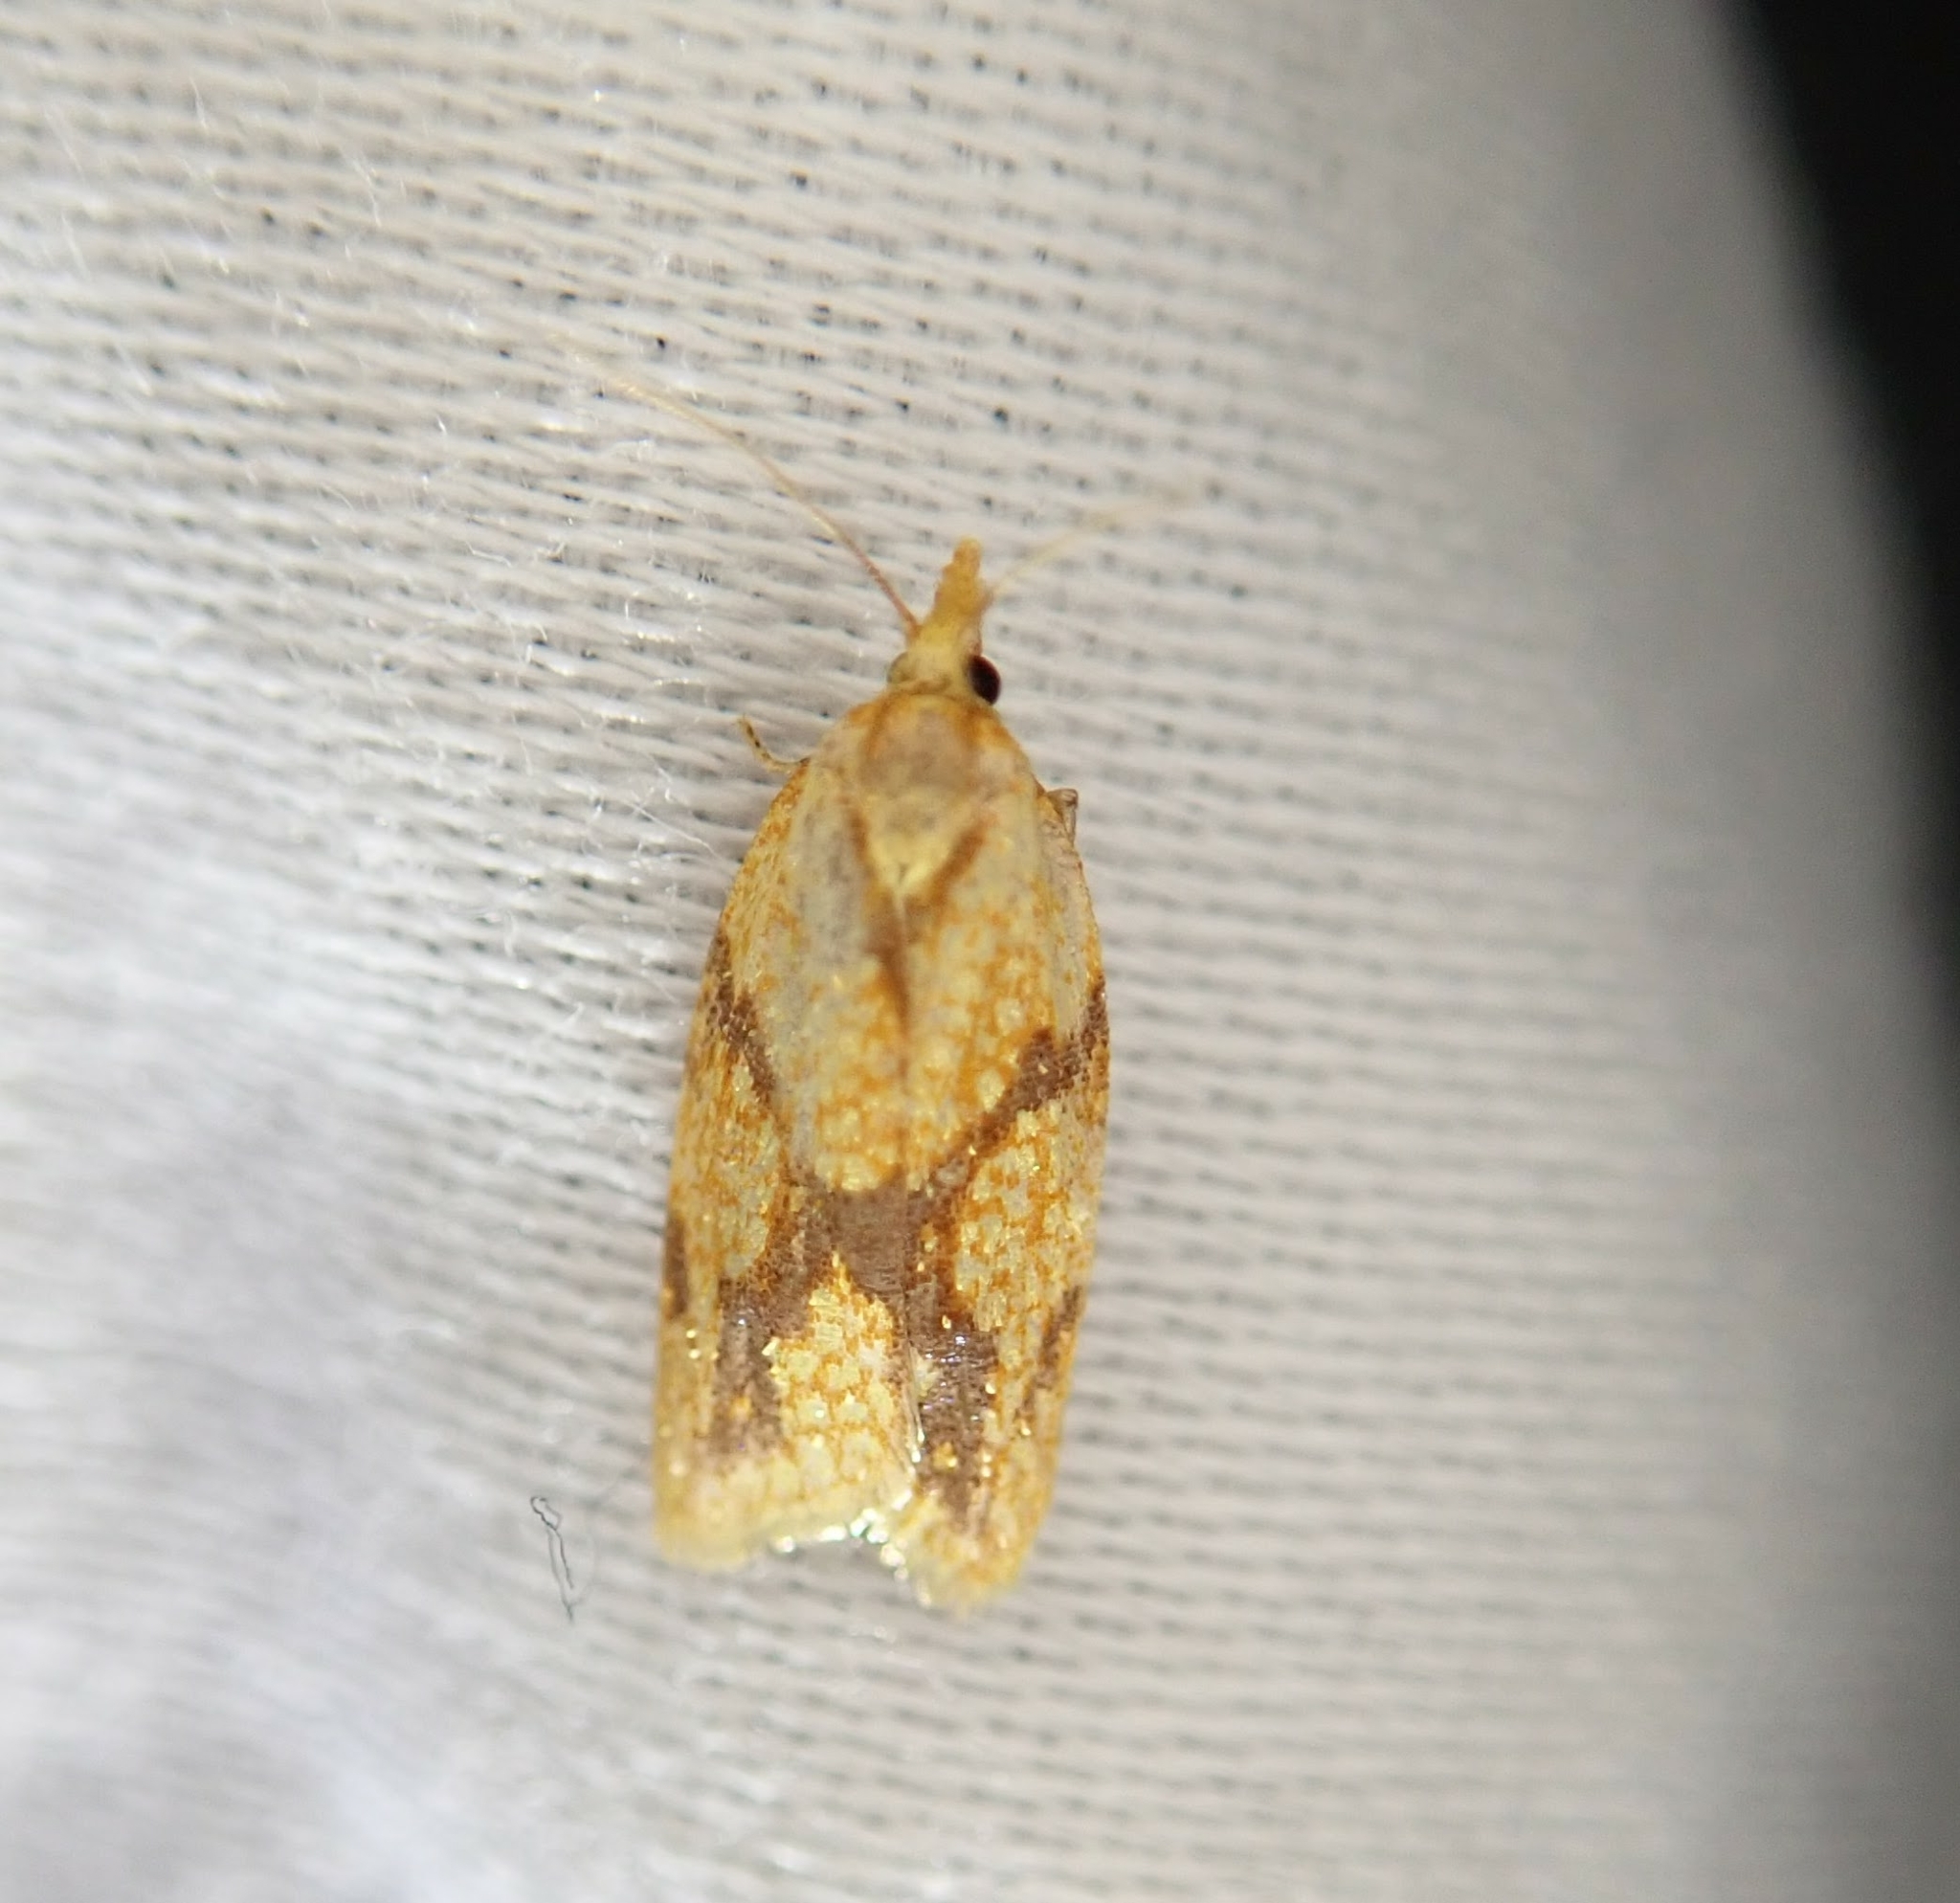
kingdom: Animalia
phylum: Arthropoda
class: Insecta
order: Lepidoptera
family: Tortricidae
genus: Sparganothis
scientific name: Sparganothis sulfureana
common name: Sparganothis fruitworm moth
